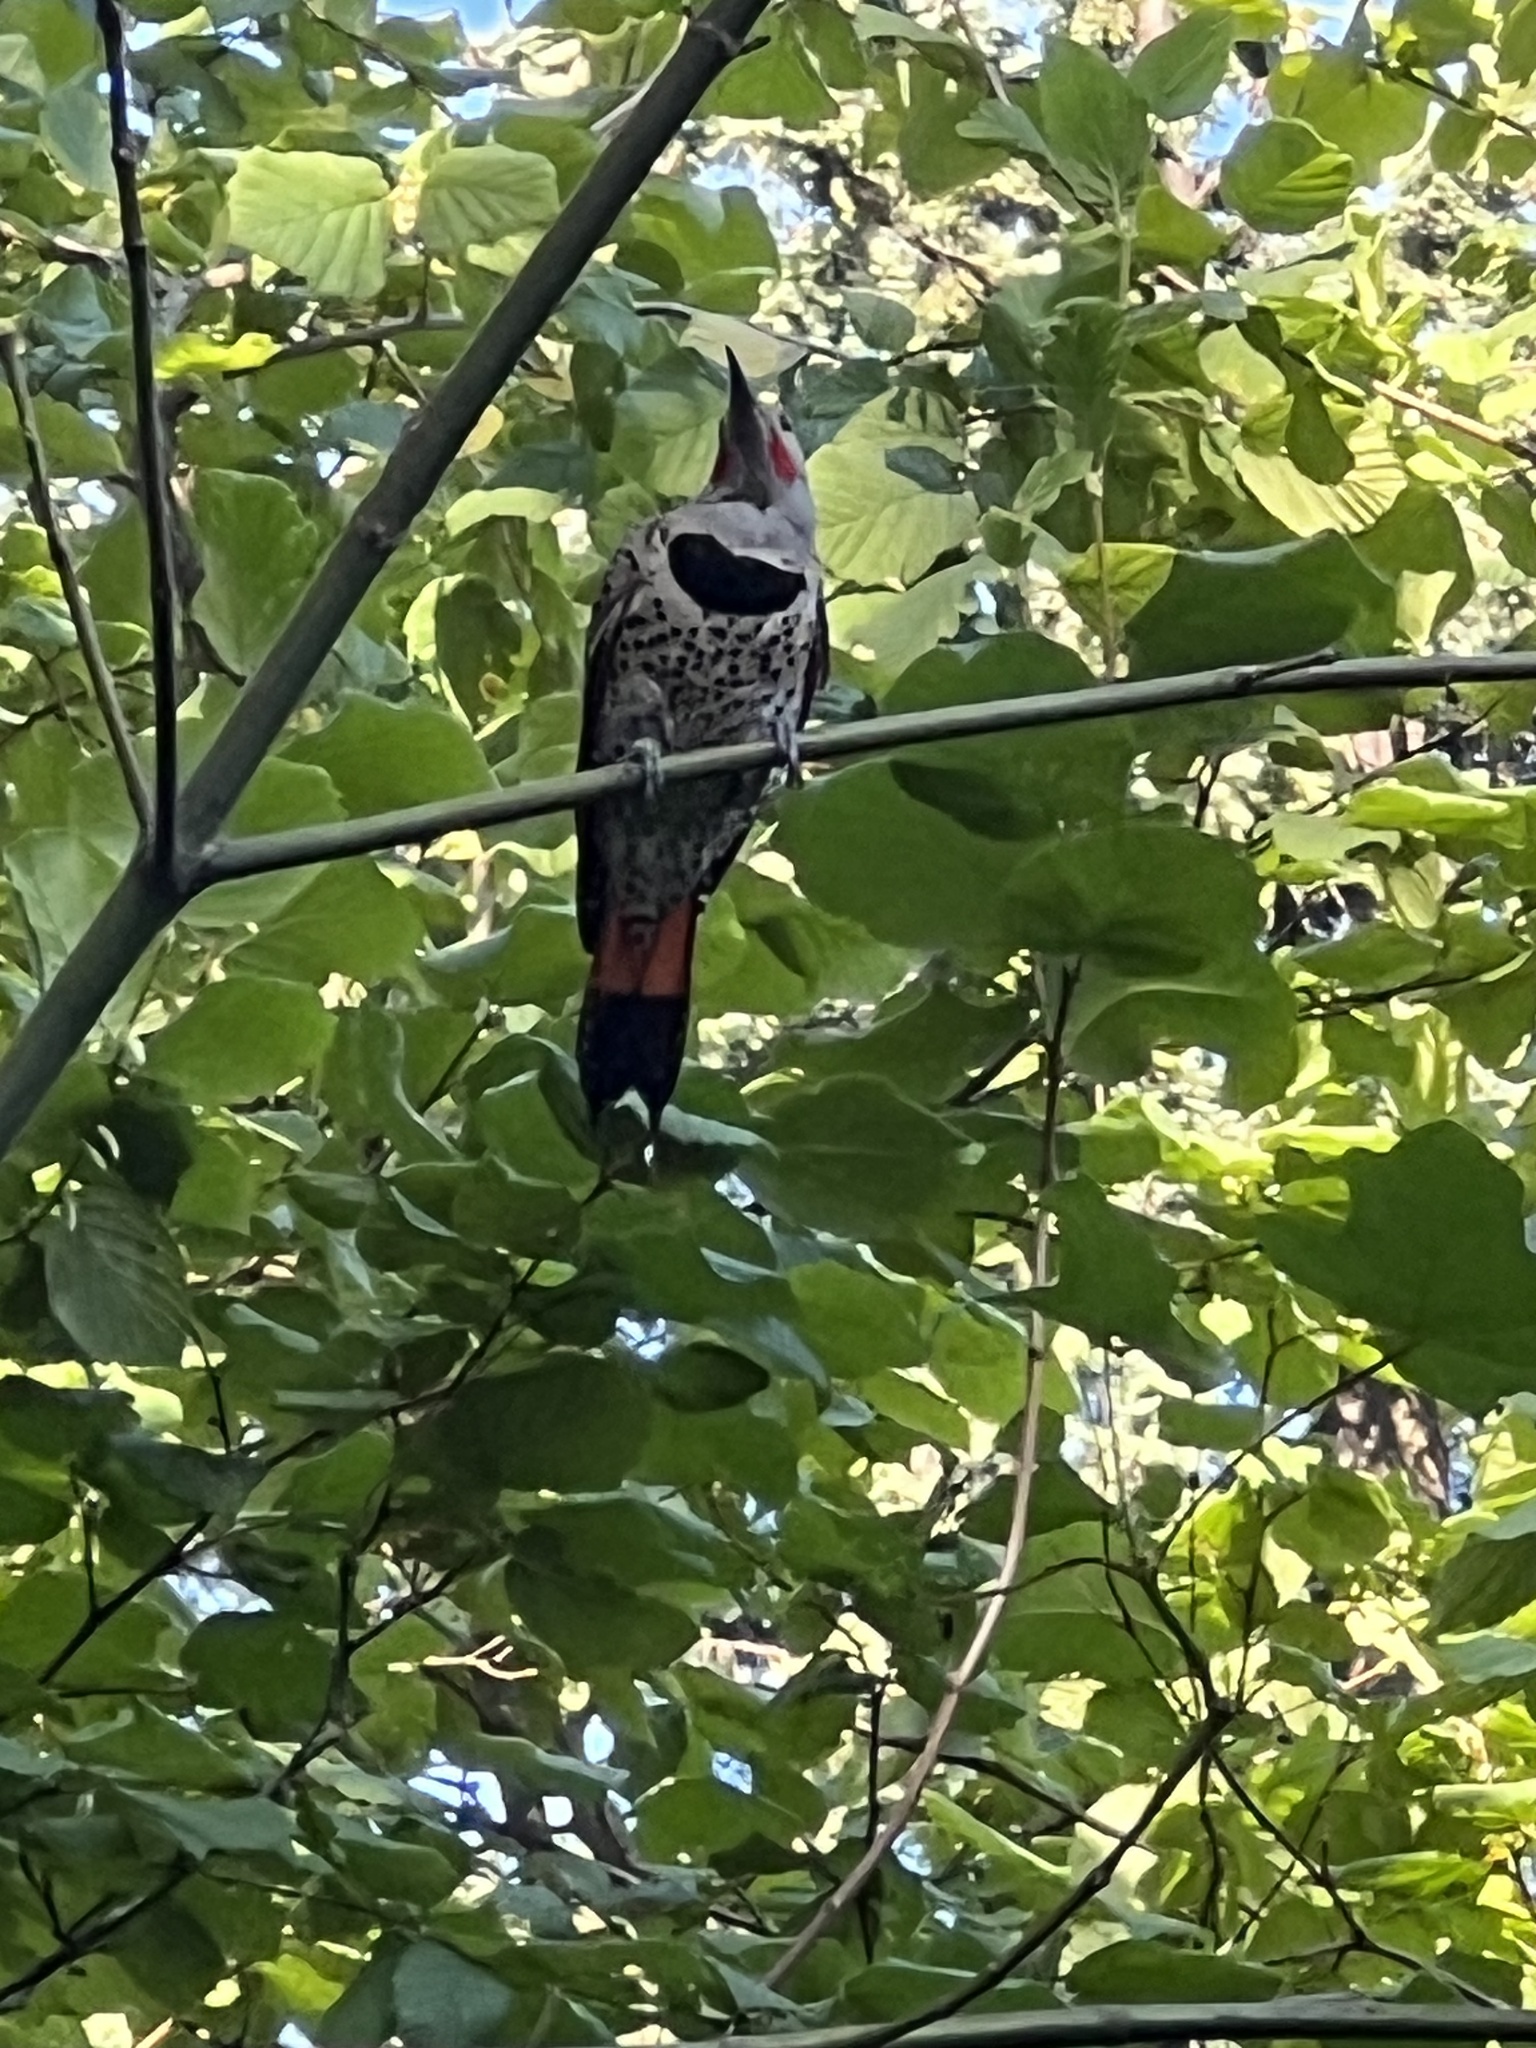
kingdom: Animalia
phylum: Chordata
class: Aves
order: Piciformes
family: Picidae
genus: Colaptes
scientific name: Colaptes auratus
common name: Northern flicker
